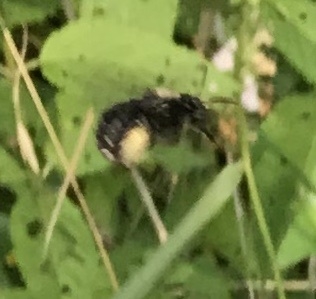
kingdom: Animalia
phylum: Arthropoda
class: Insecta
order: Hymenoptera
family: Apidae
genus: Melissodes
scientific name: Melissodes bimaculatus
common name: Two-spotted long-horned bee
